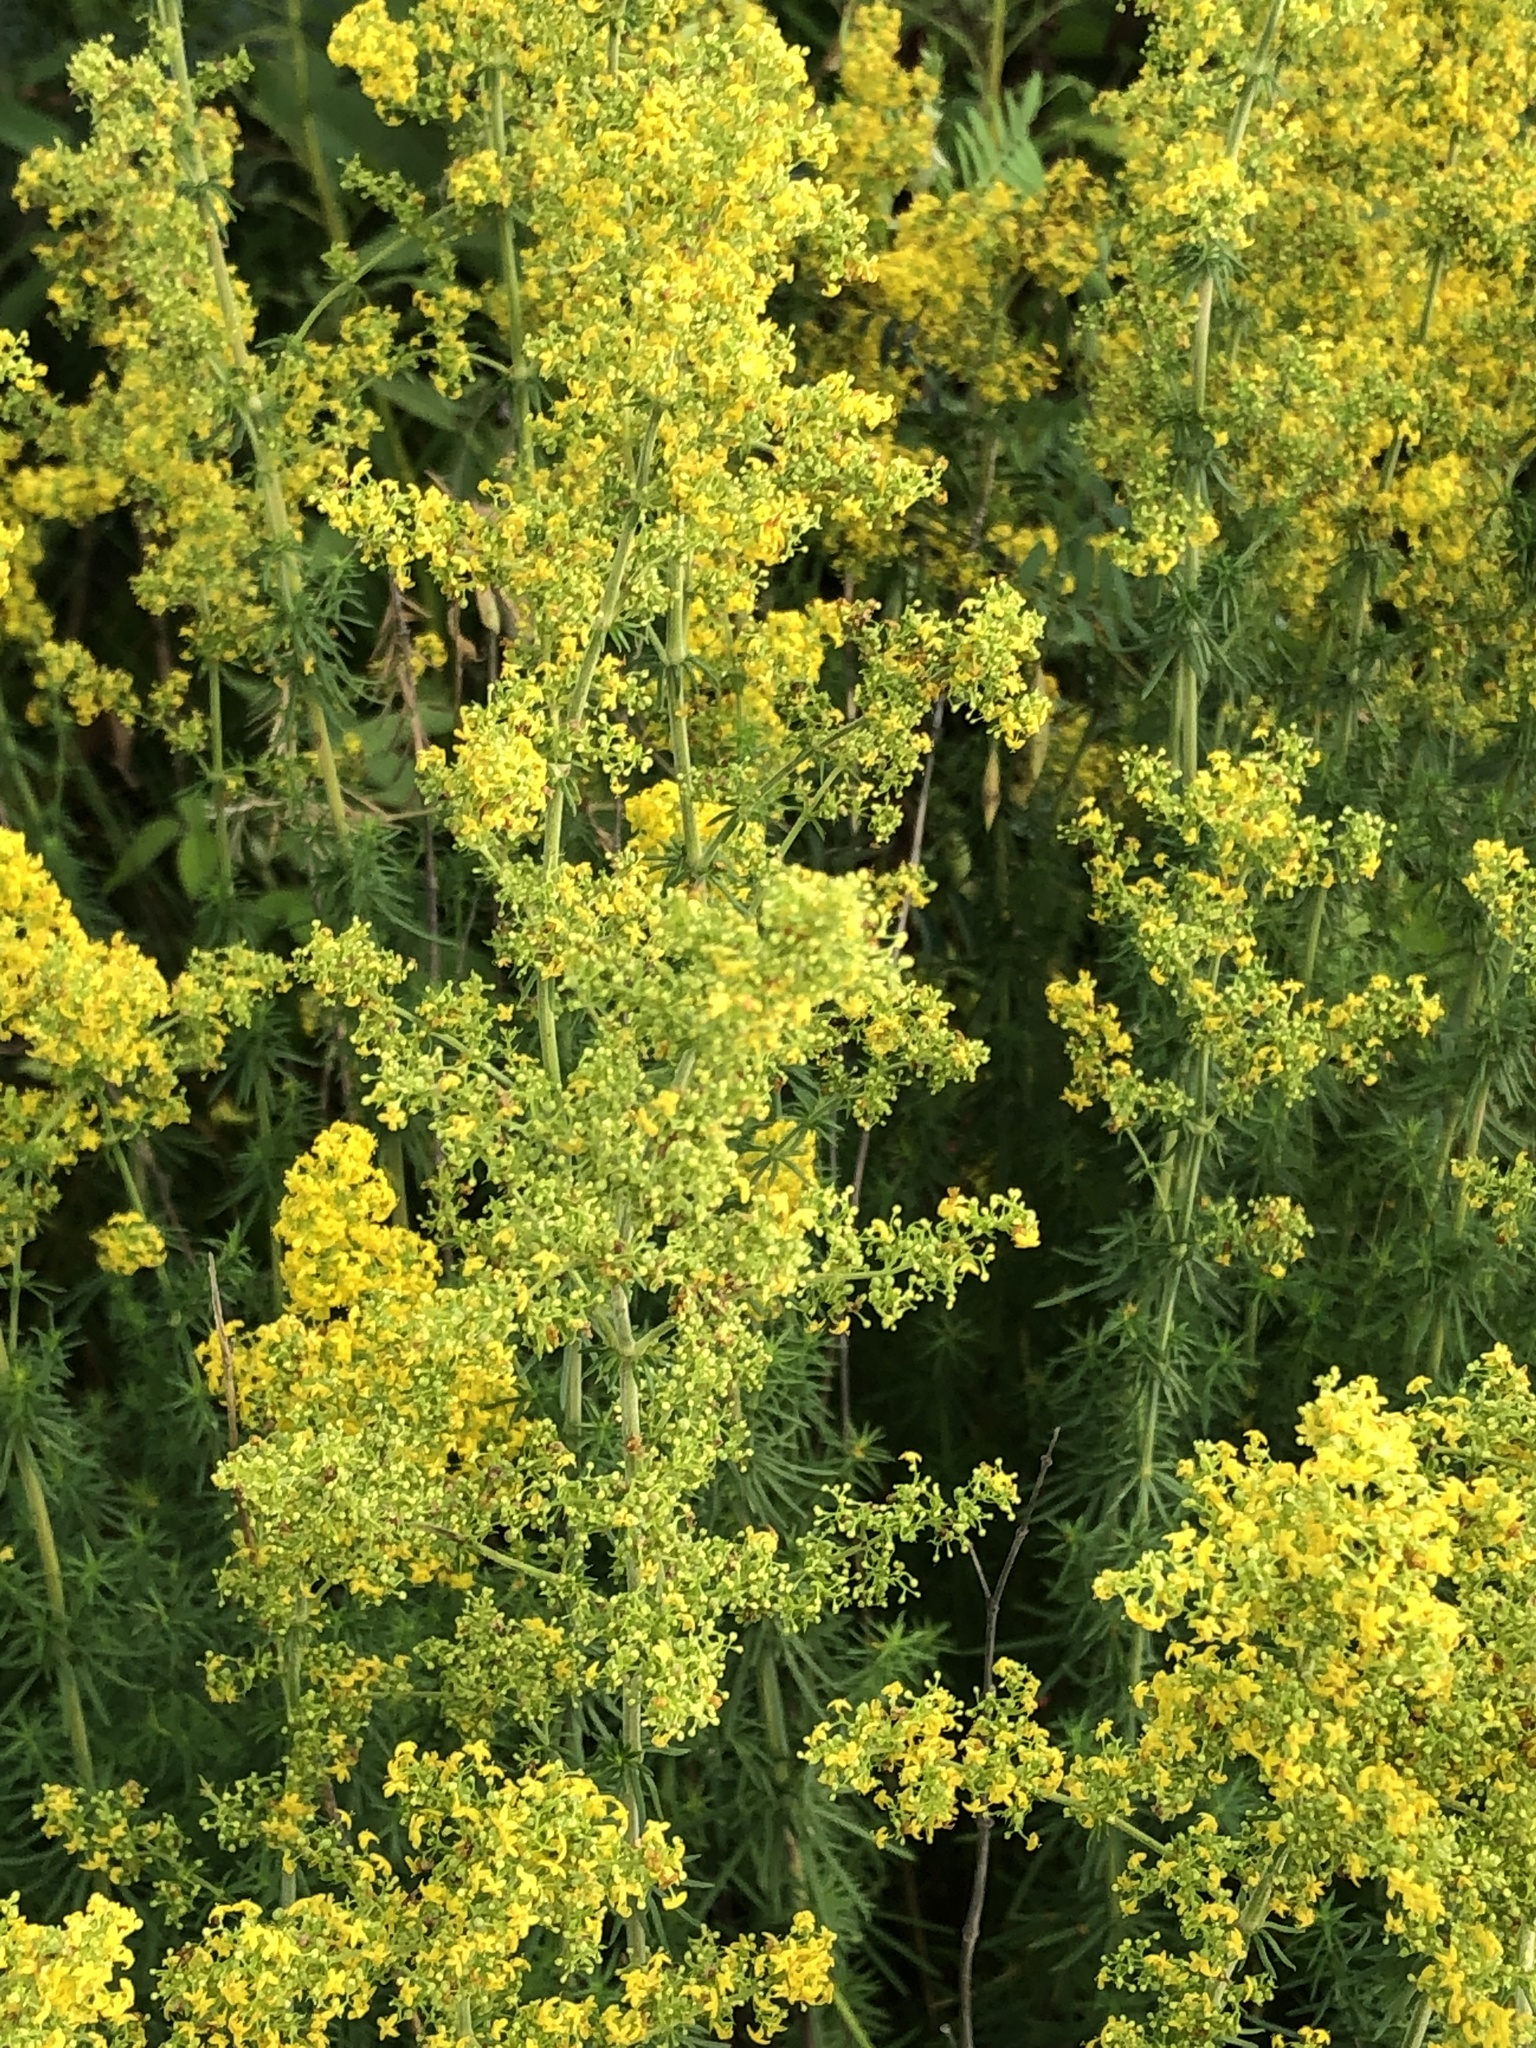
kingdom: Plantae
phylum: Tracheophyta
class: Magnoliopsida
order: Gentianales
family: Rubiaceae
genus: Galium
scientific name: Galium verum
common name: Lady's bedstraw
